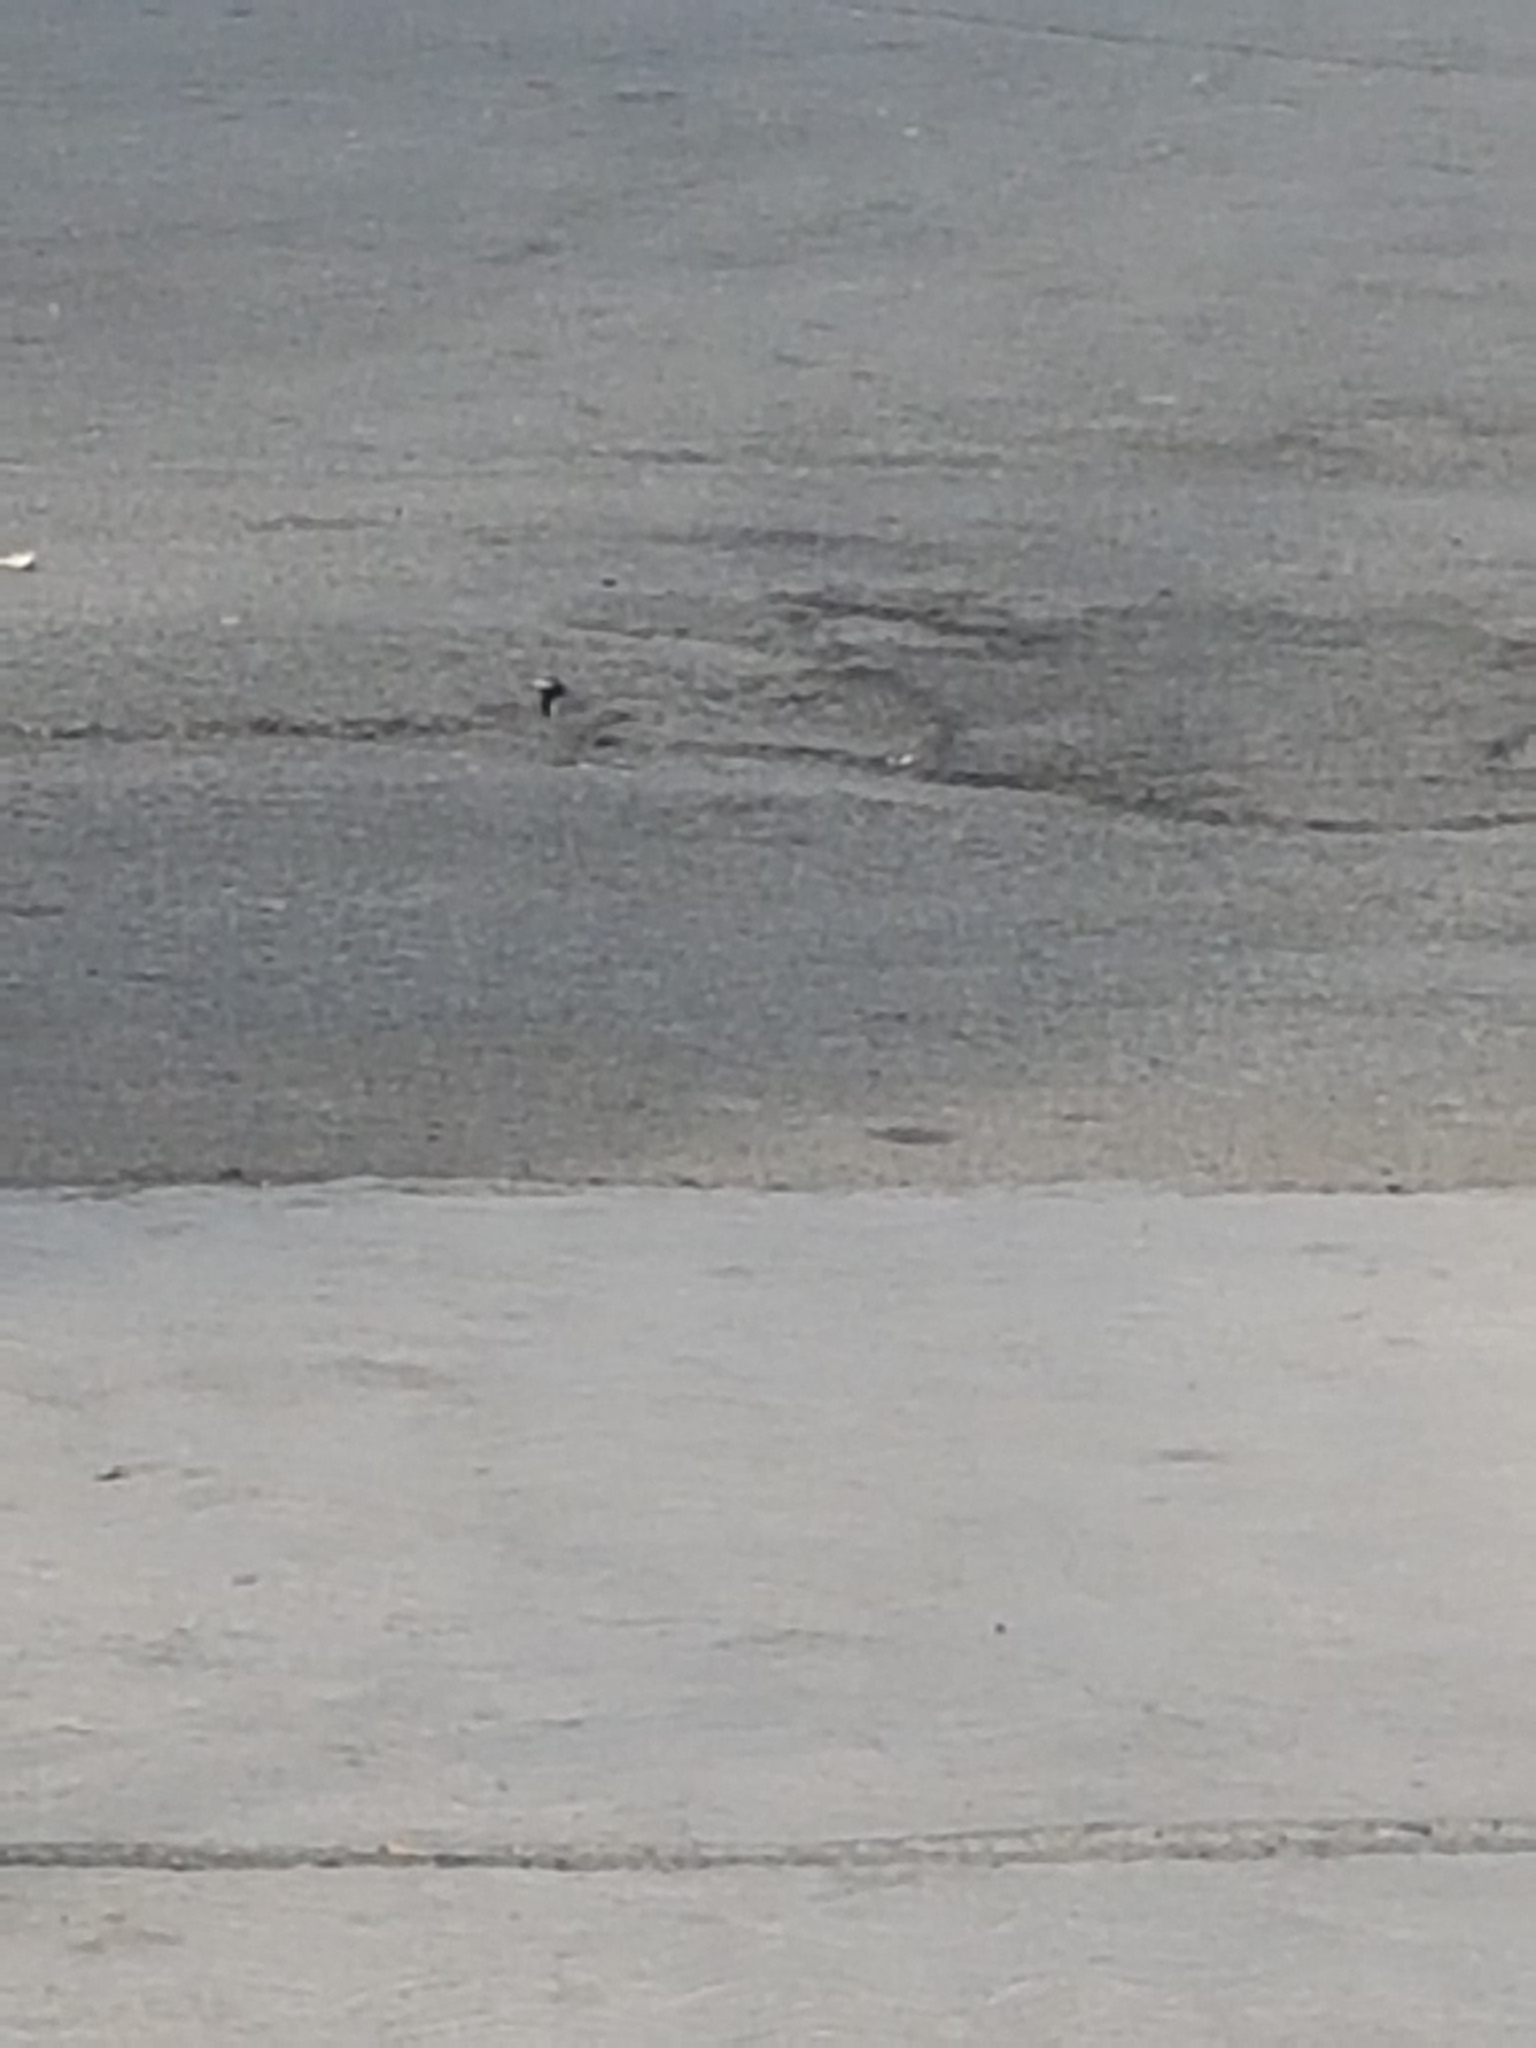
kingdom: Animalia
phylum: Chordata
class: Aves
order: Passeriformes
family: Motacillidae
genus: Motacilla
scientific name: Motacilla alba
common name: White wagtail
